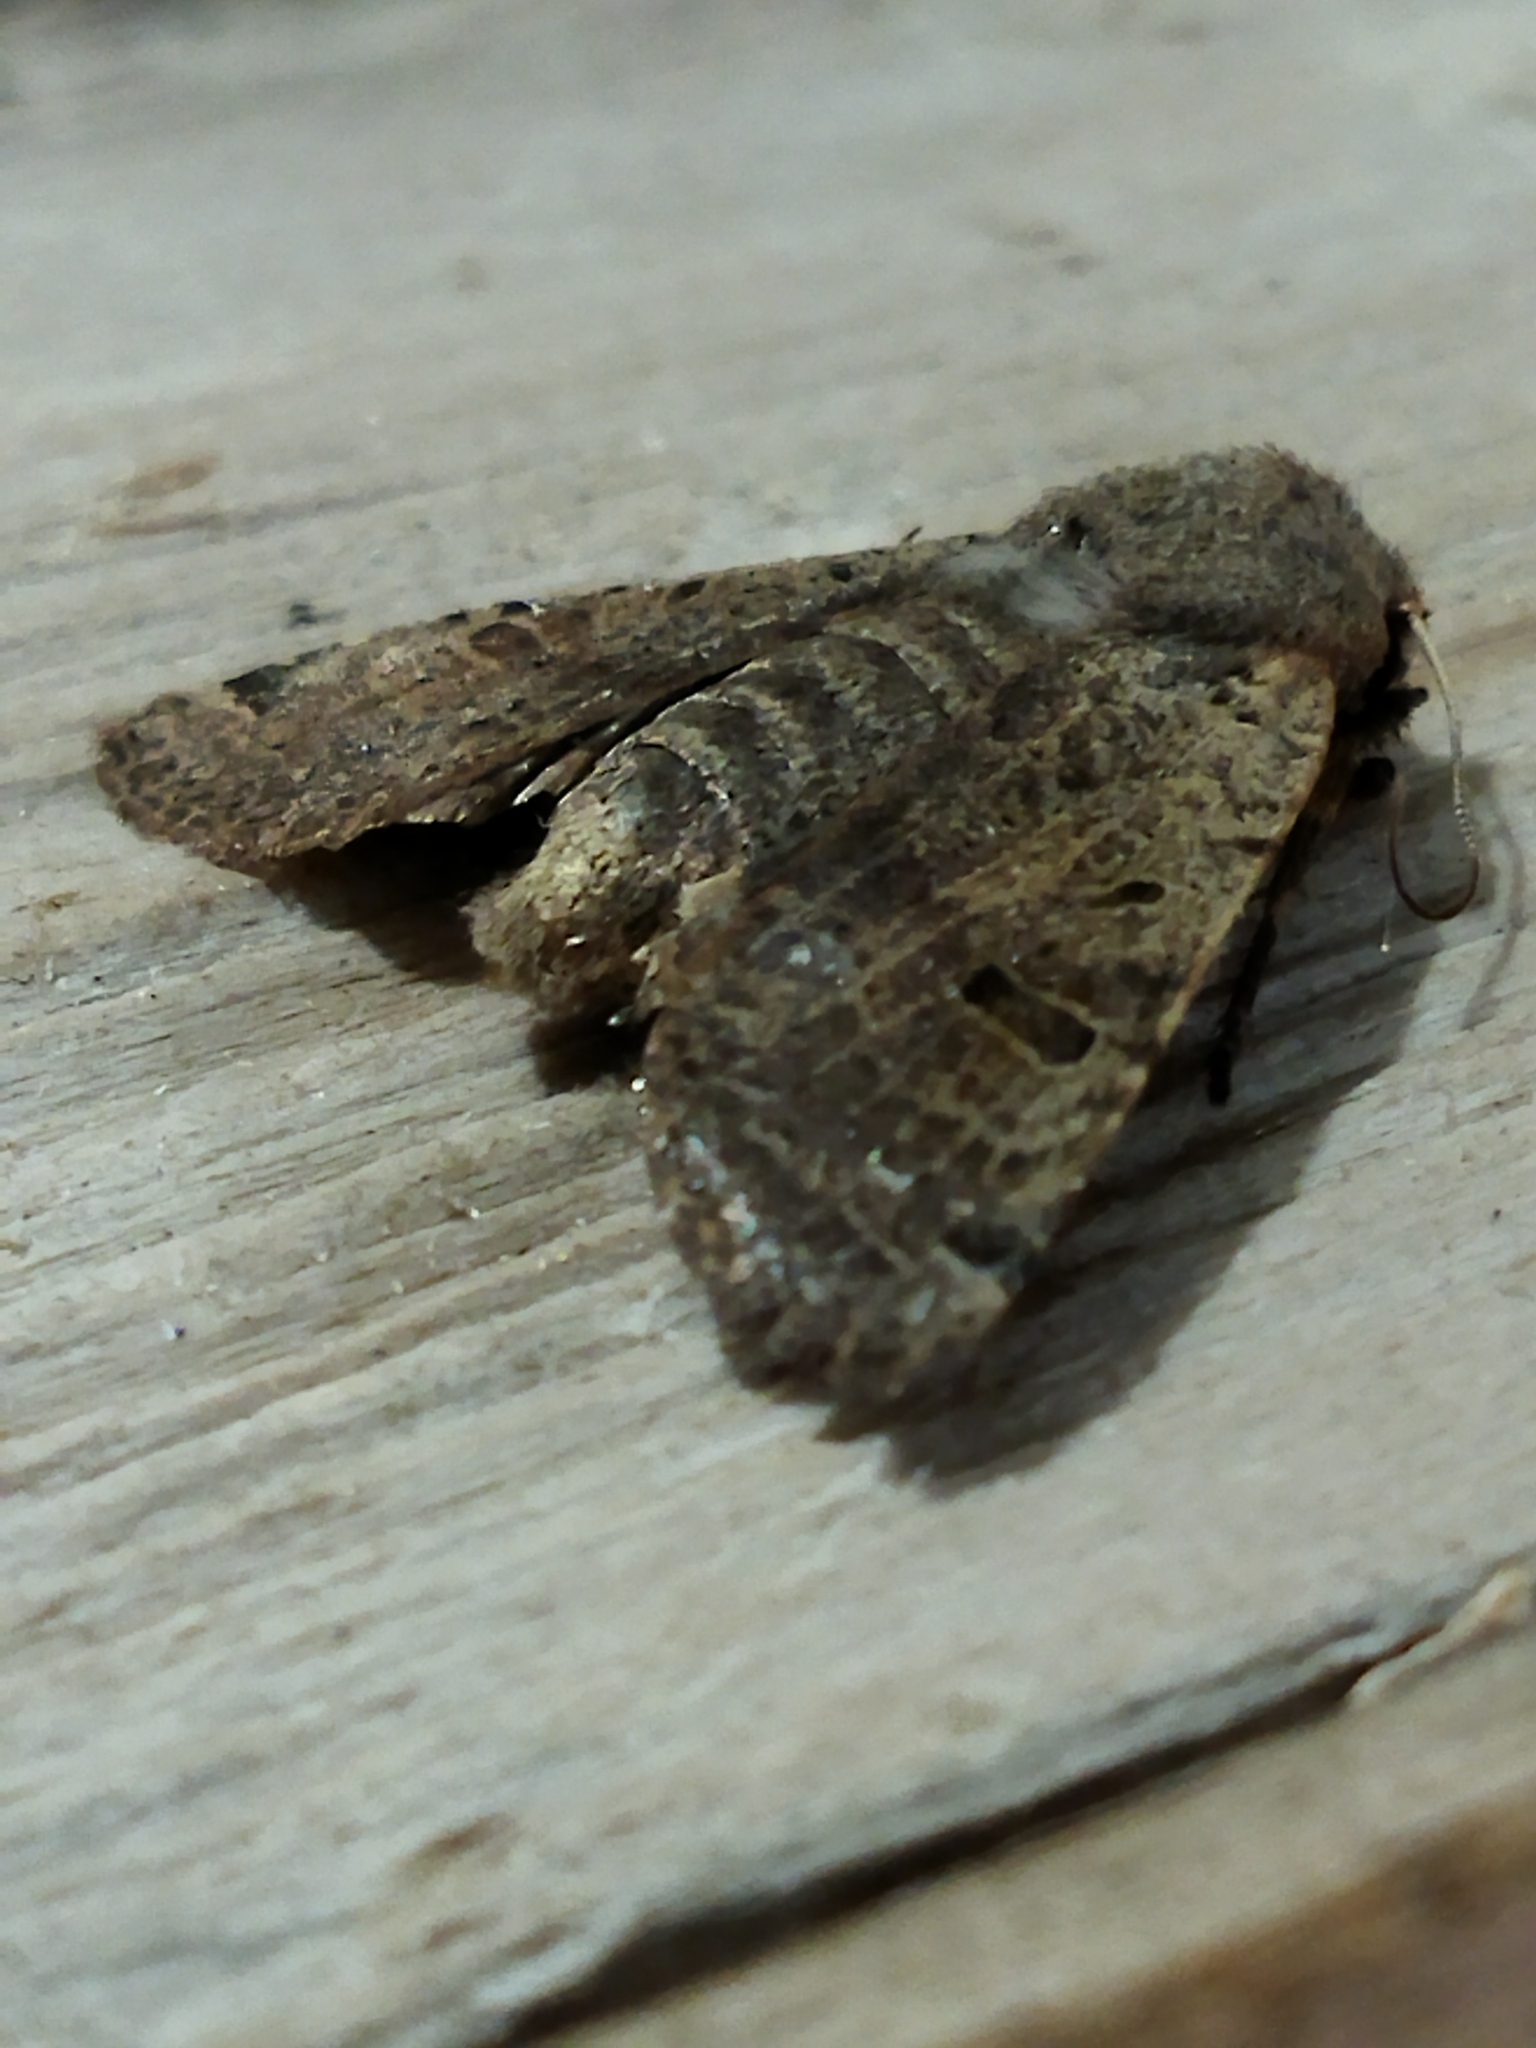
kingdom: Animalia
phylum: Arthropoda
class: Insecta
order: Lepidoptera
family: Noctuidae
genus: Agrochola
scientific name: Agrochola lychnidis
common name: Beaded chestnut
